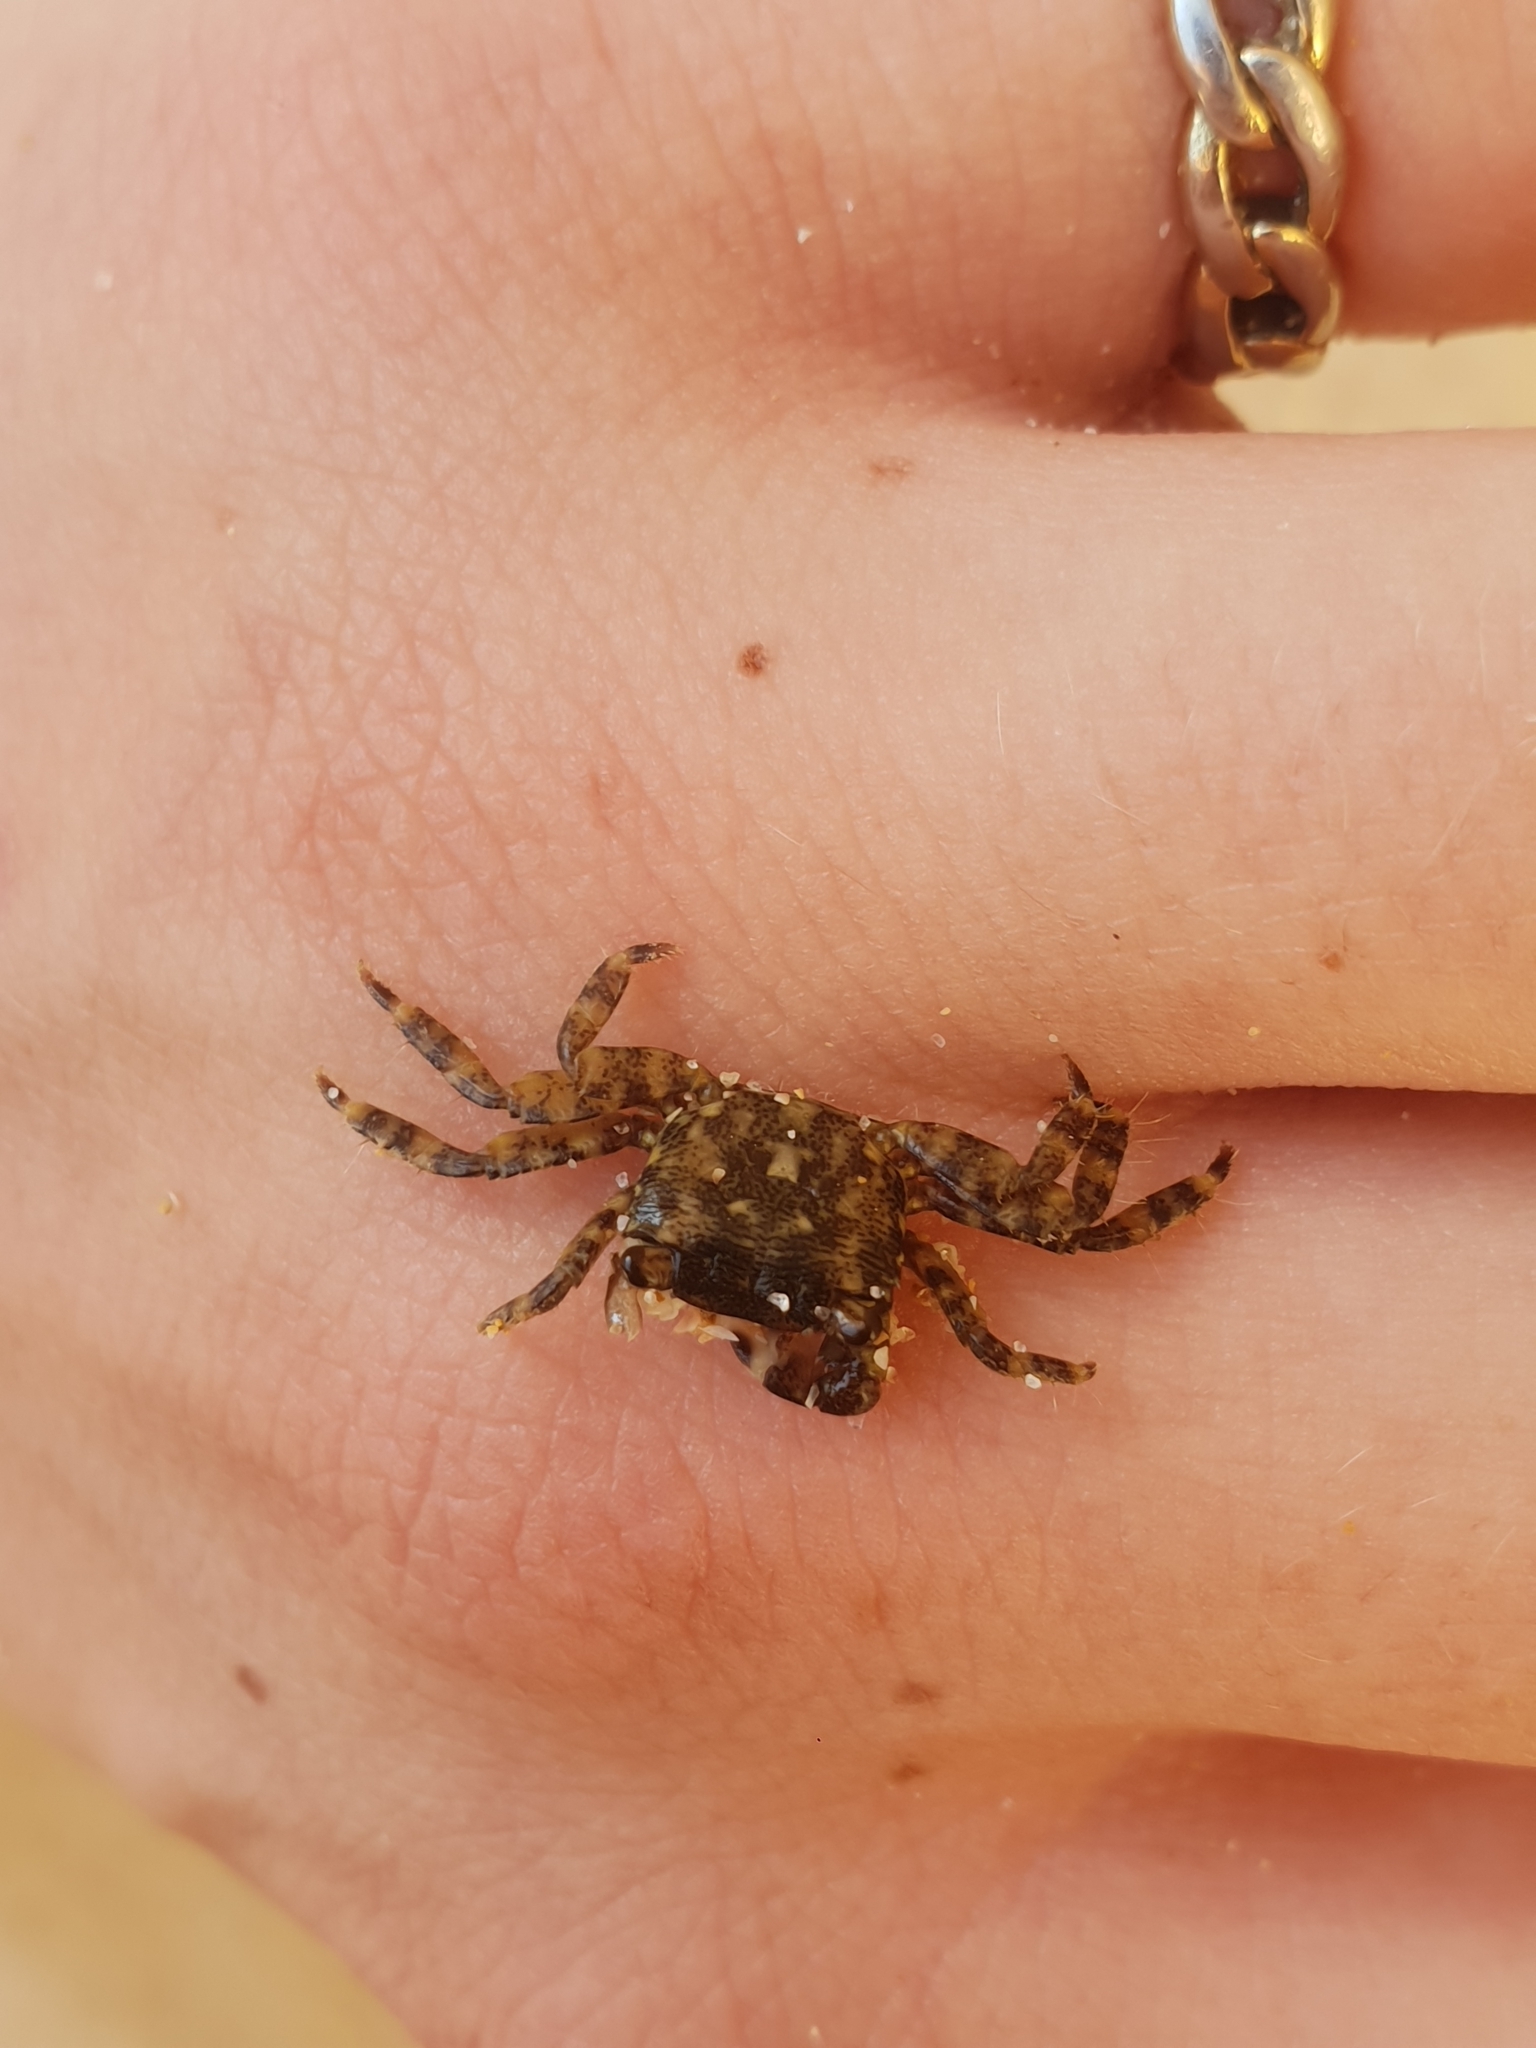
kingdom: Animalia
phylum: Arthropoda
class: Malacostraca
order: Decapoda
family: Grapsidae
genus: Pachygrapsus
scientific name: Pachygrapsus marmoratus
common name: Marbled rock crab
